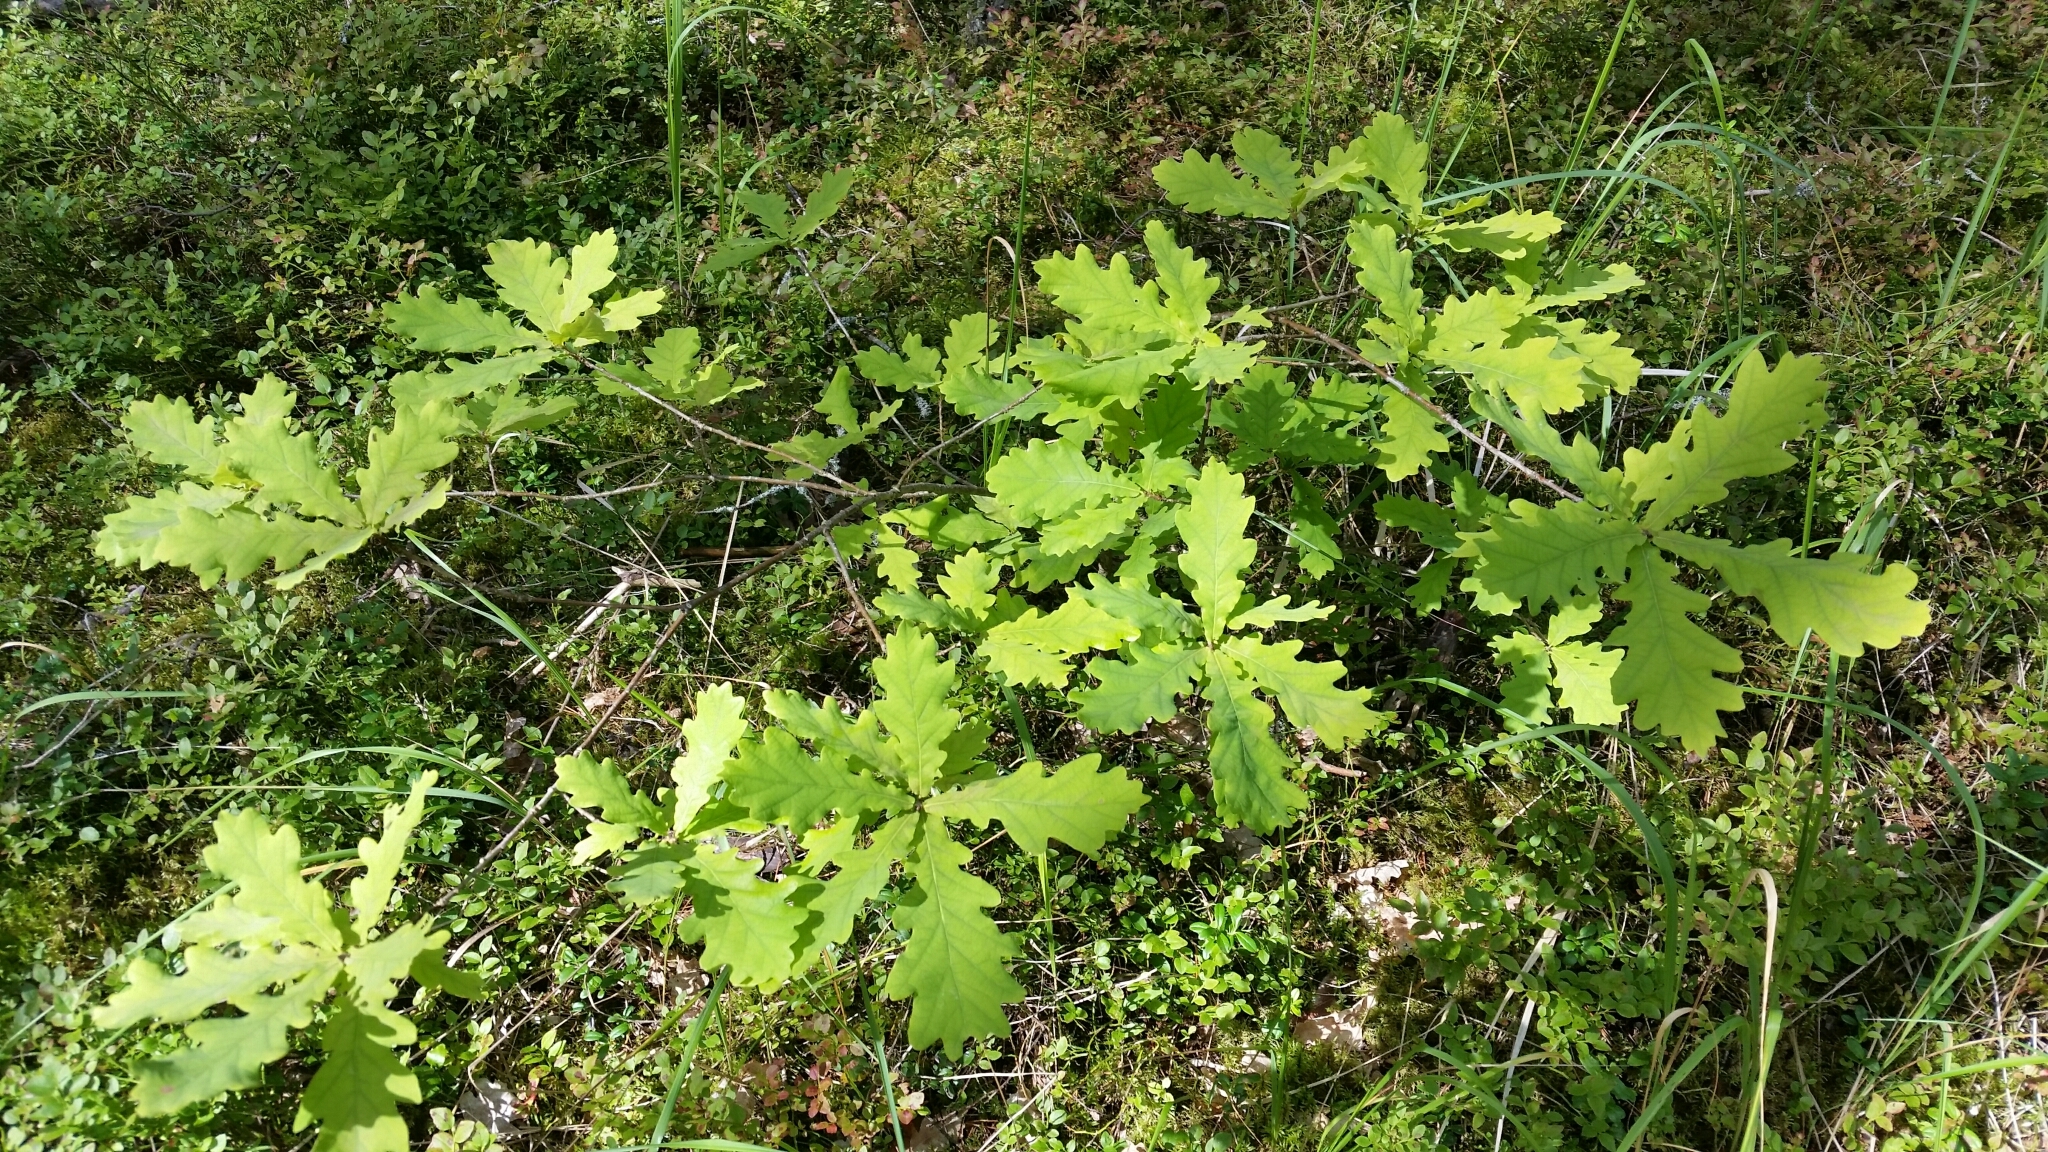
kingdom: Plantae
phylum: Tracheophyta
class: Magnoliopsida
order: Fagales
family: Fagaceae
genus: Quercus
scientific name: Quercus robur
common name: Pedunculate oak
